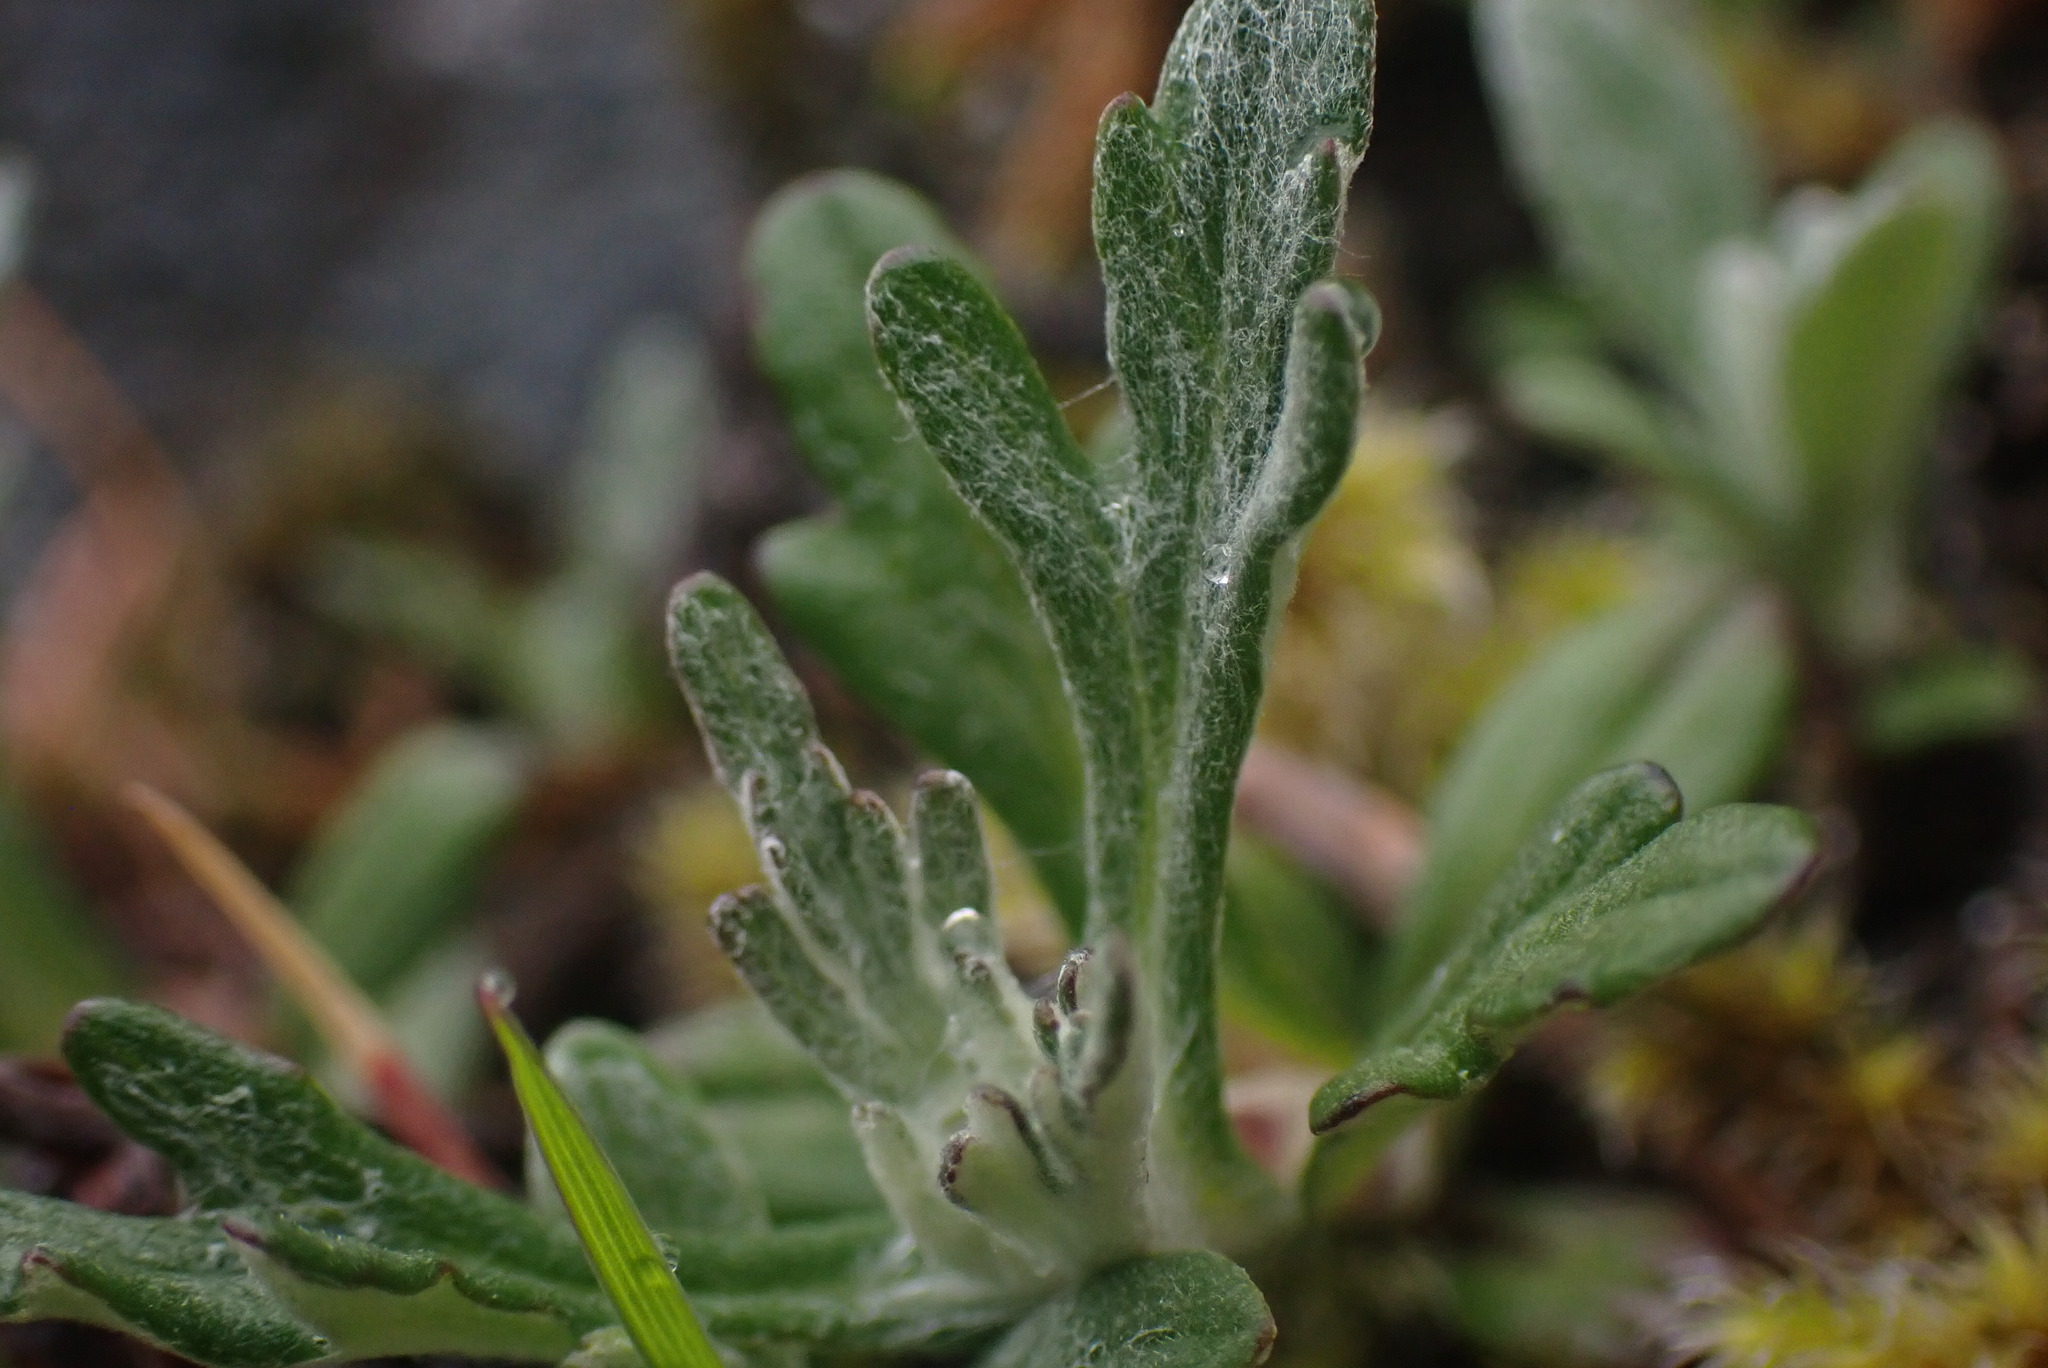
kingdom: Plantae
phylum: Tracheophyta
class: Magnoliopsida
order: Asterales
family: Asteraceae
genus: Eriophyllum
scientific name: Eriophyllum lanatum
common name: Common woolly-sunflower
